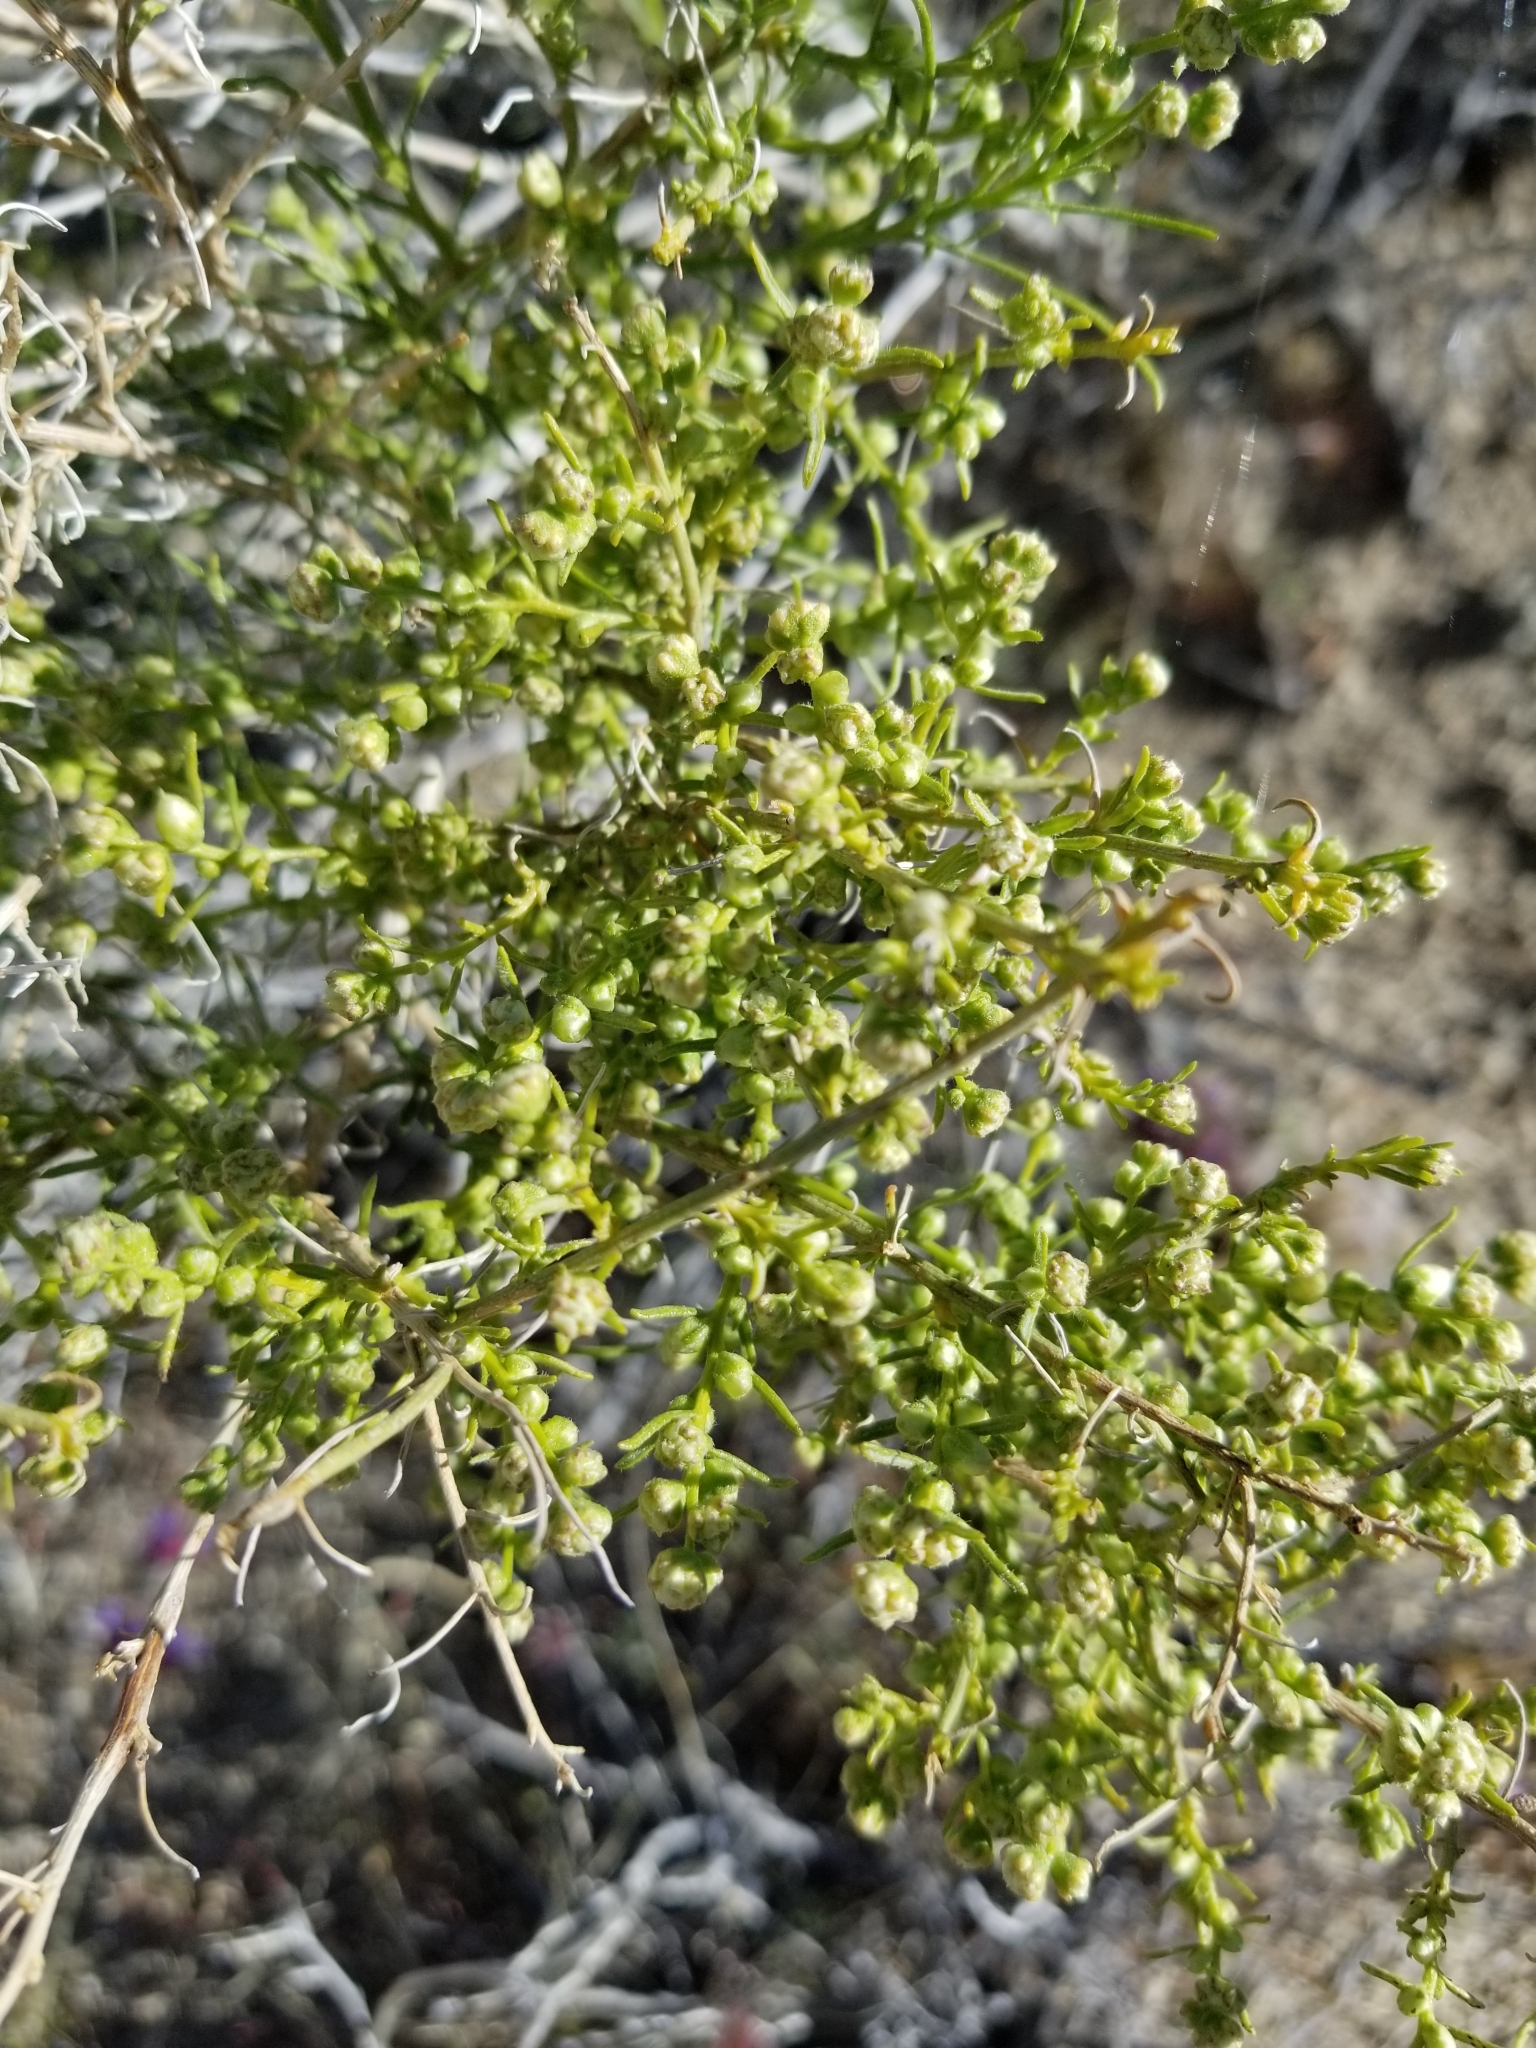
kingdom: Plantae
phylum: Tracheophyta
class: Magnoliopsida
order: Asterales
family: Asteraceae
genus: Ambrosia
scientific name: Ambrosia salsola
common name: Burrobrush
